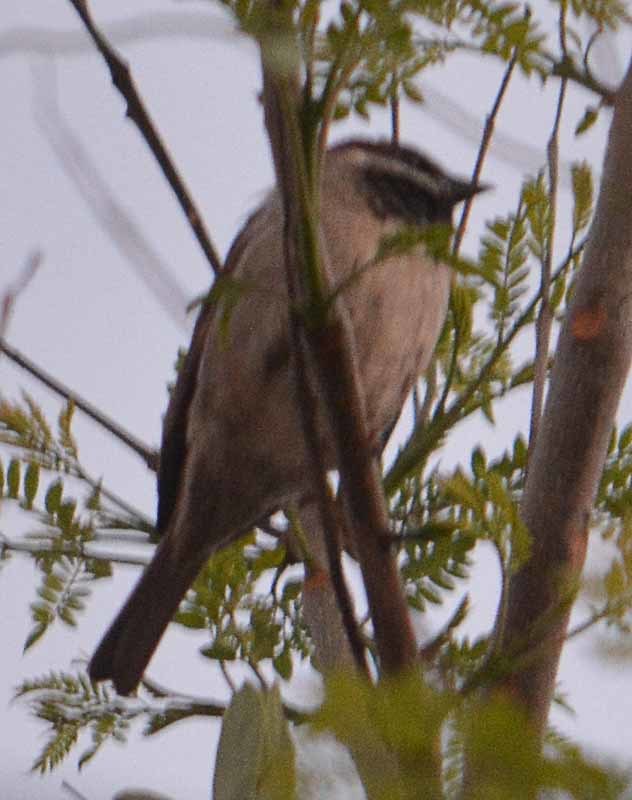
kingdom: Animalia
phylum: Chordata
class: Aves
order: Passeriformes
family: Passeridae
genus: Passer
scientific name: Passer domesticus
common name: House sparrow
